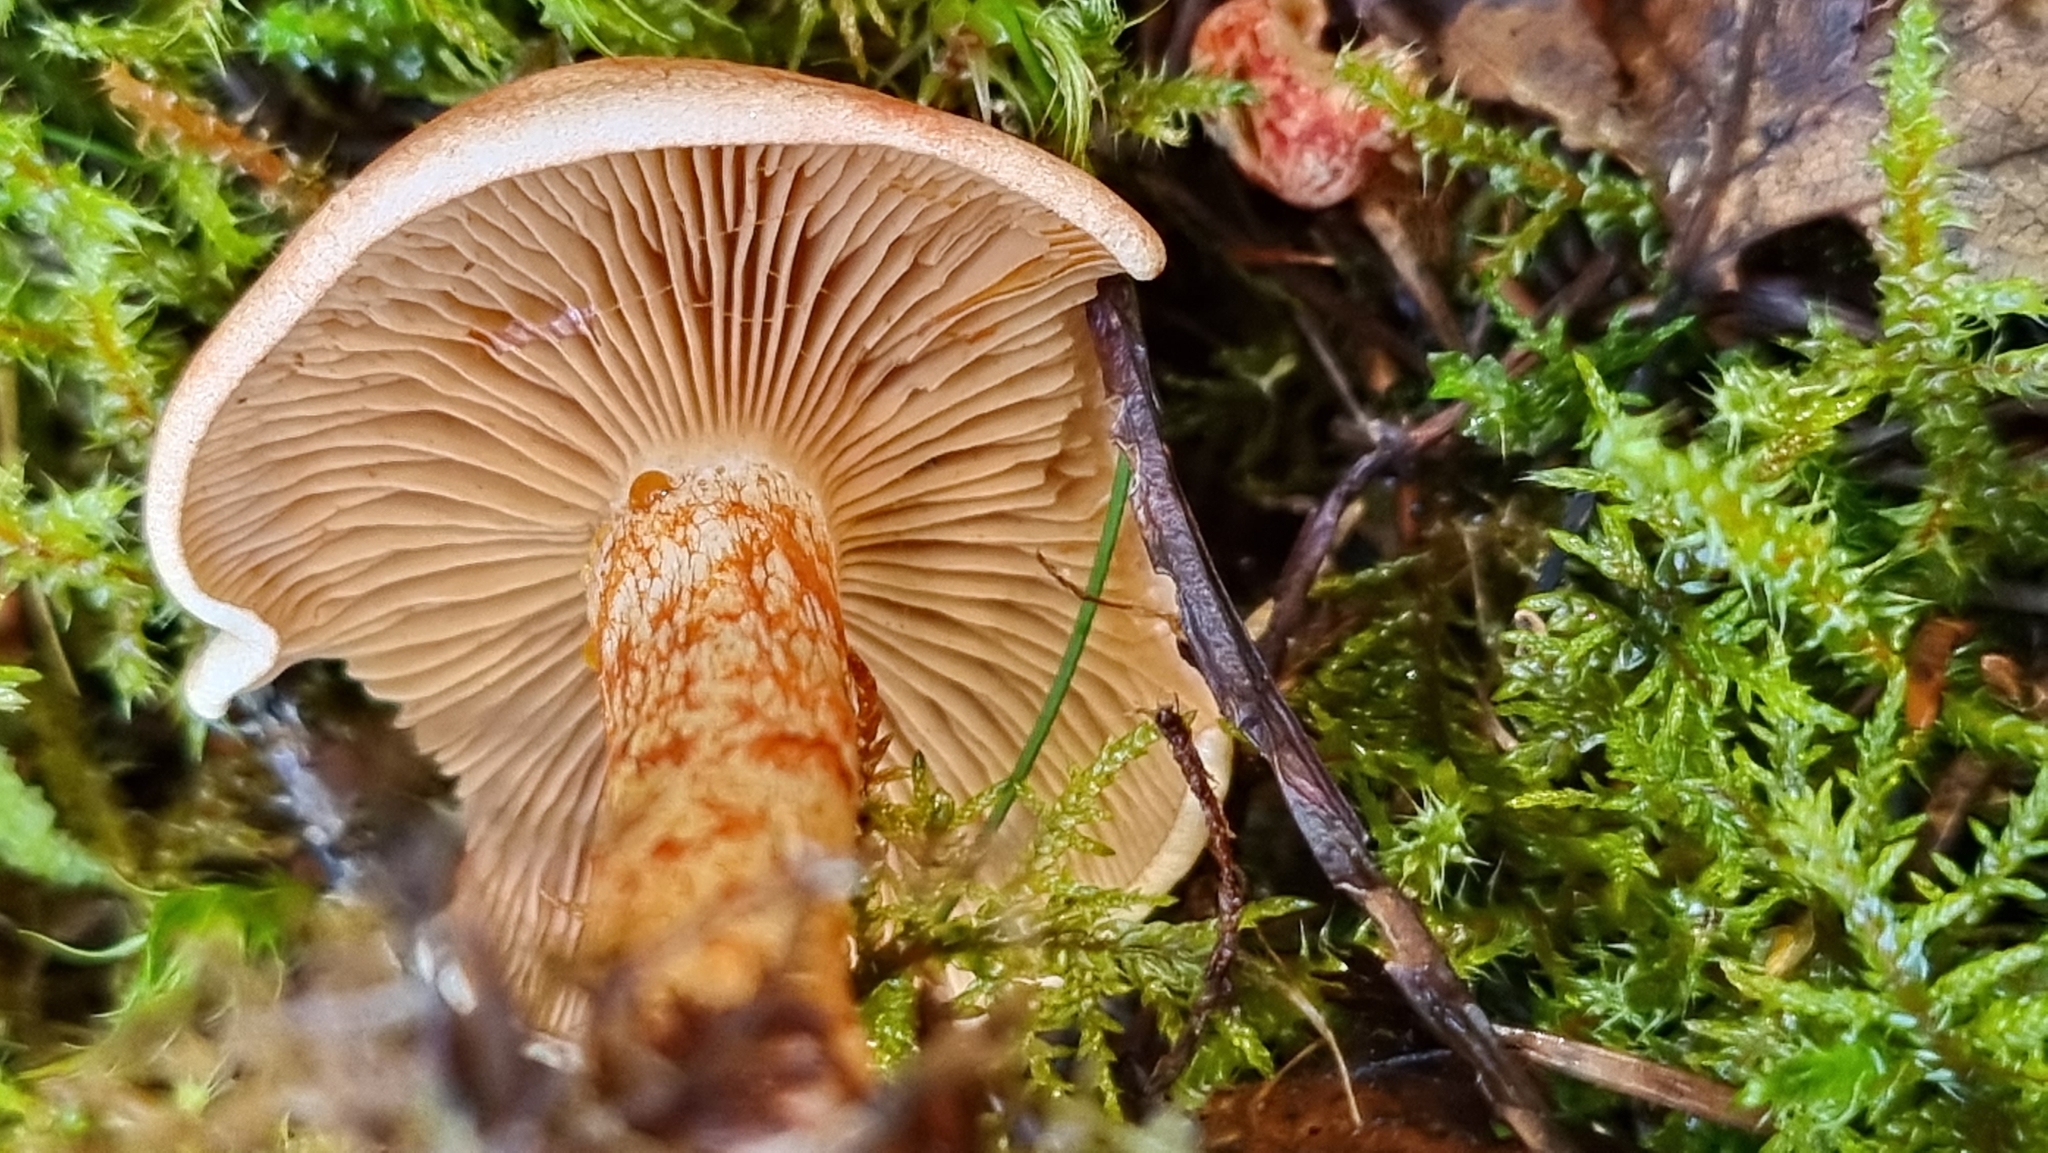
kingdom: Fungi
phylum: Basidiomycota
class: Agaricomycetes
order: Agaricales
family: Cortinariaceae
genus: Cortinarius
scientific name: Cortinarius bolaris
